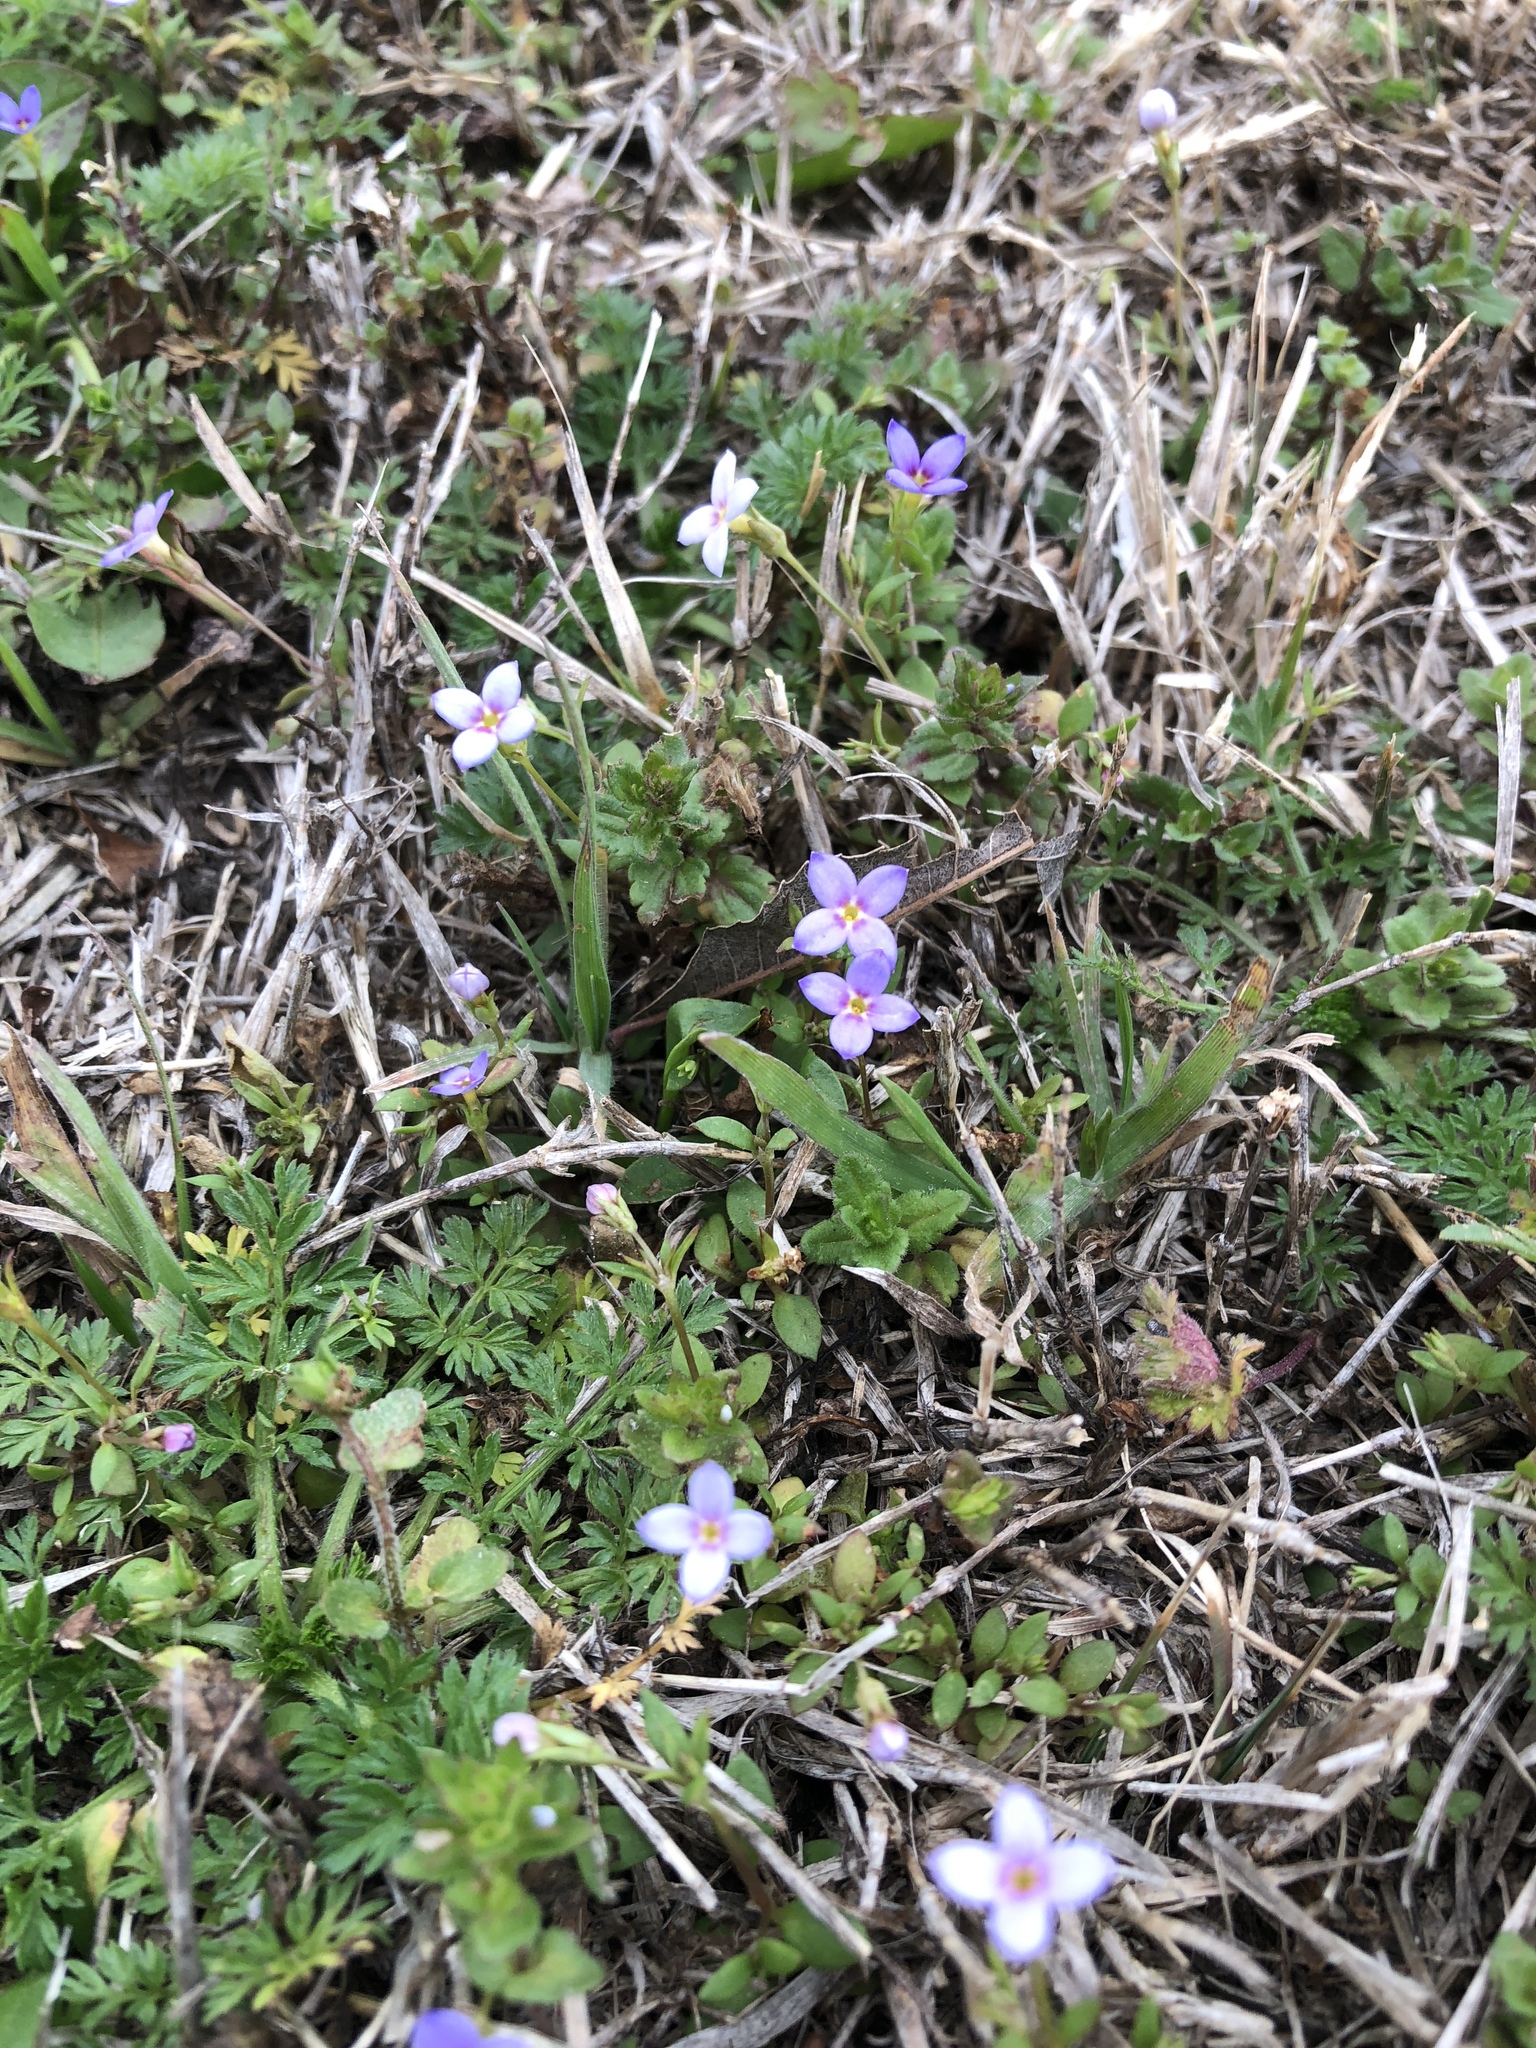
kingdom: Plantae
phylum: Tracheophyta
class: Magnoliopsida
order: Gentianales
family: Rubiaceae
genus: Houstonia
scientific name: Houstonia pusilla
